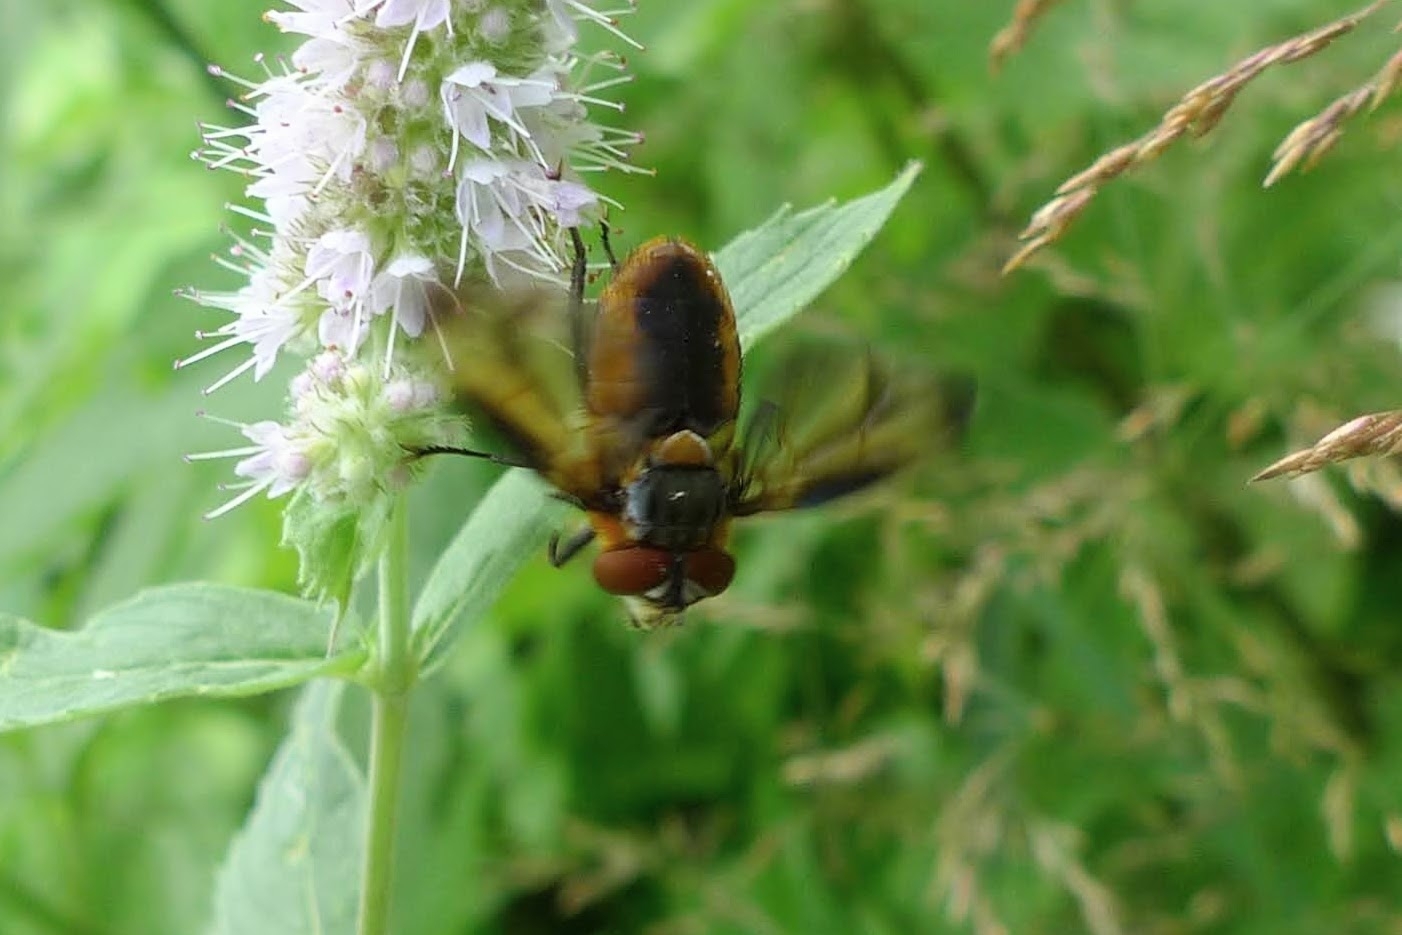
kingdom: Animalia
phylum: Arthropoda
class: Insecta
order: Diptera
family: Tachinidae
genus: Phasia
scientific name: Phasia hemiptera
